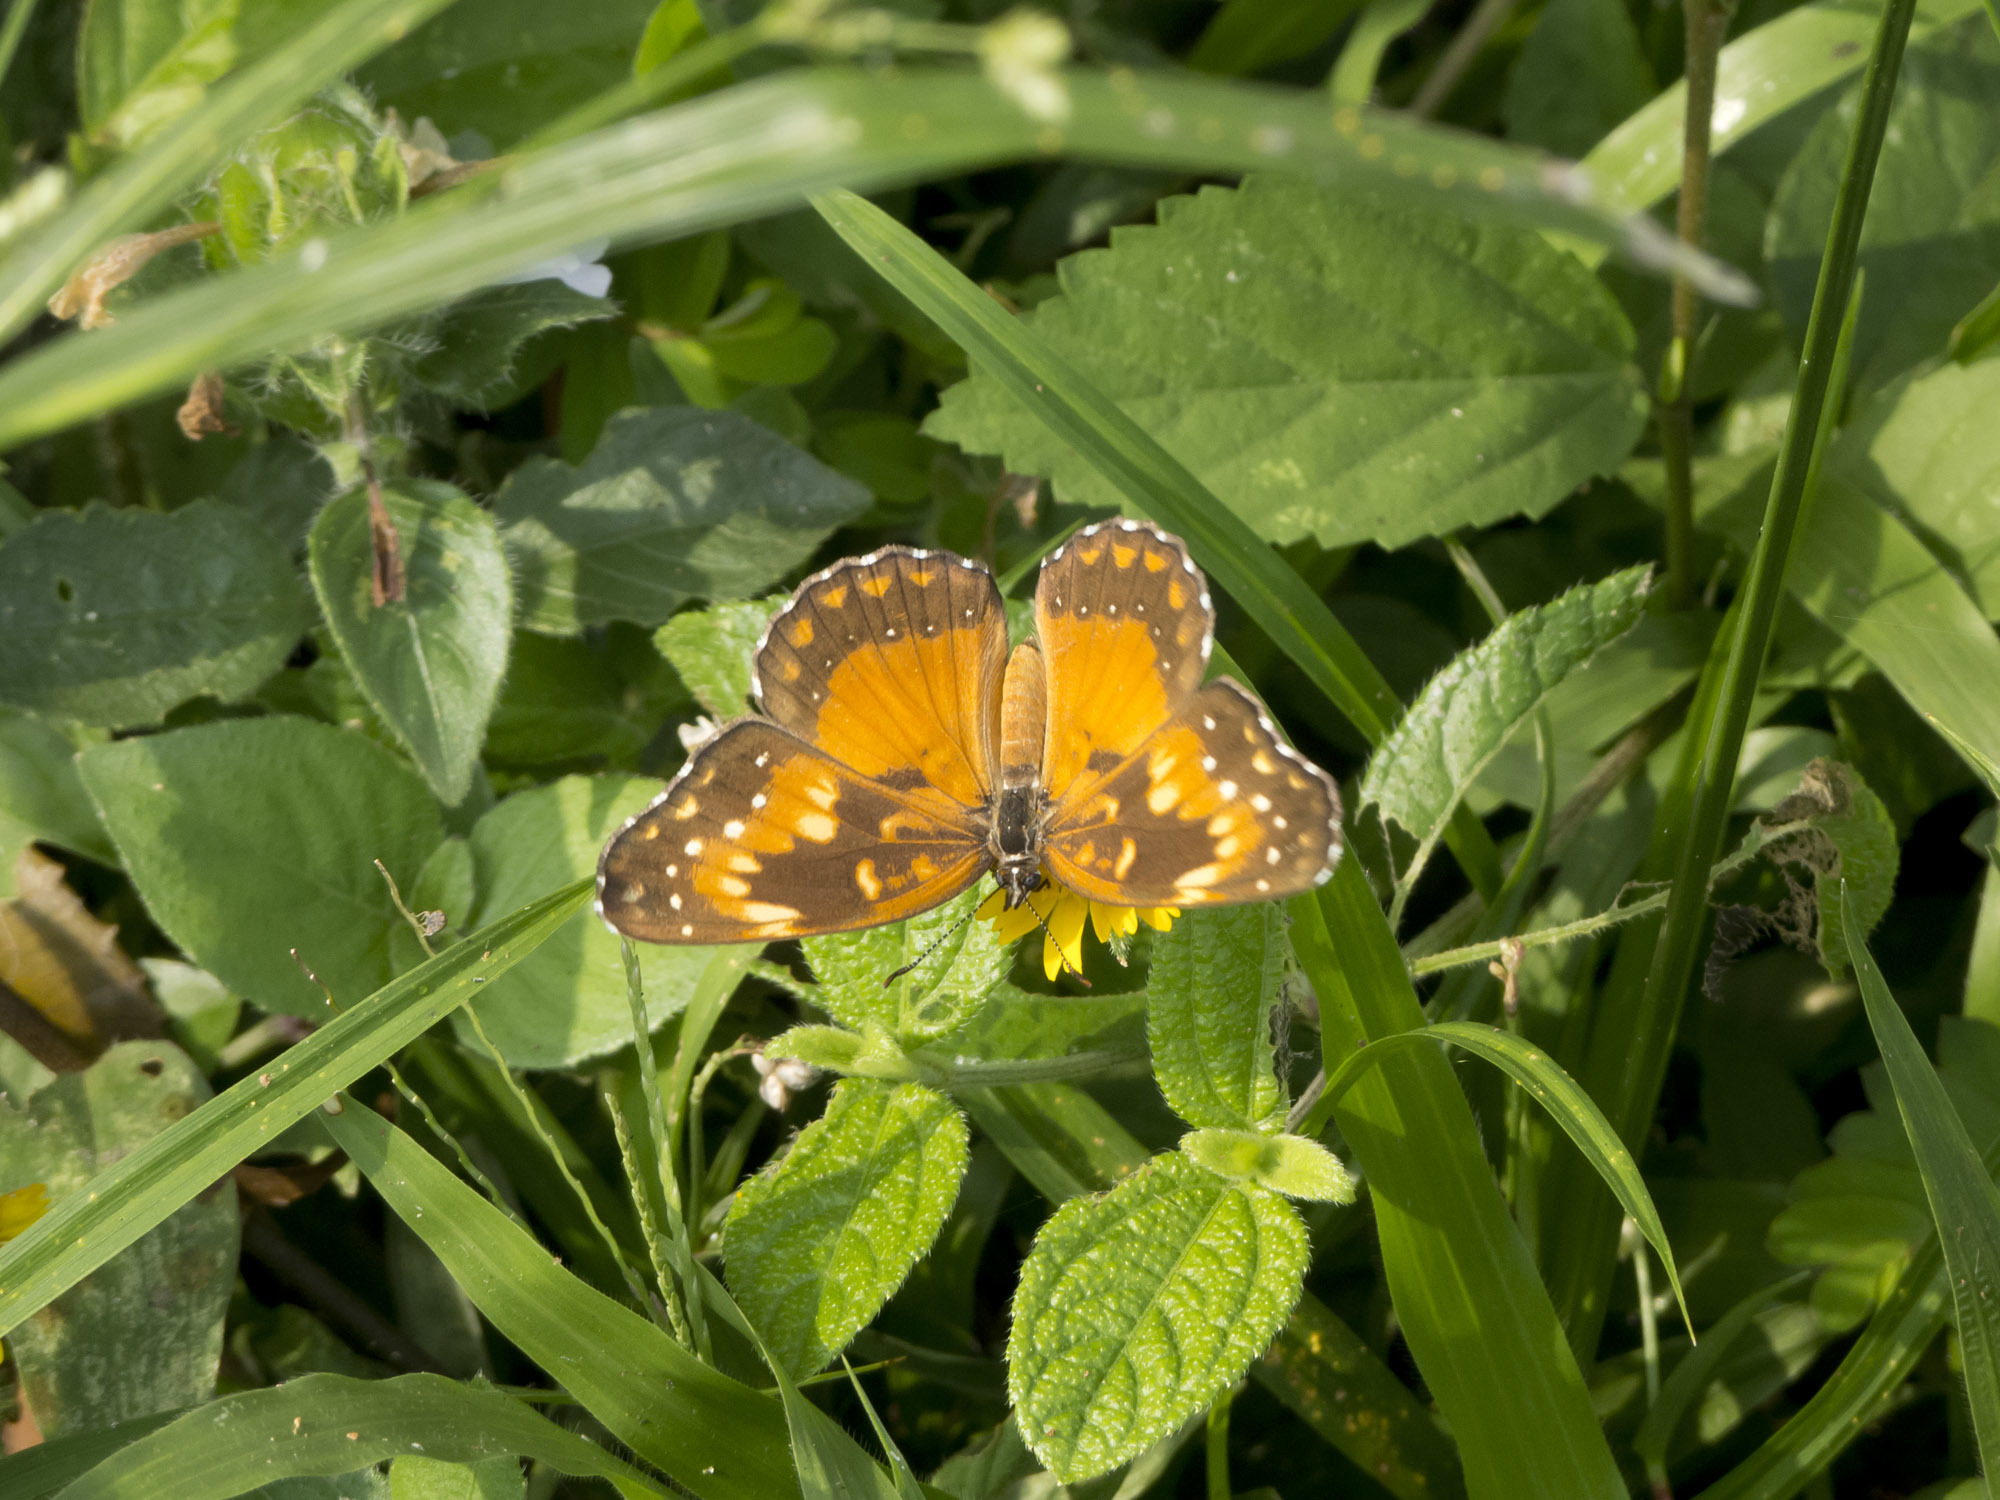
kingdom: Animalia
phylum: Arthropoda
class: Insecta
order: Lepidoptera
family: Nymphalidae
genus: Chlosyne
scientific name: Chlosyne lacinia
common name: Bordered patch
